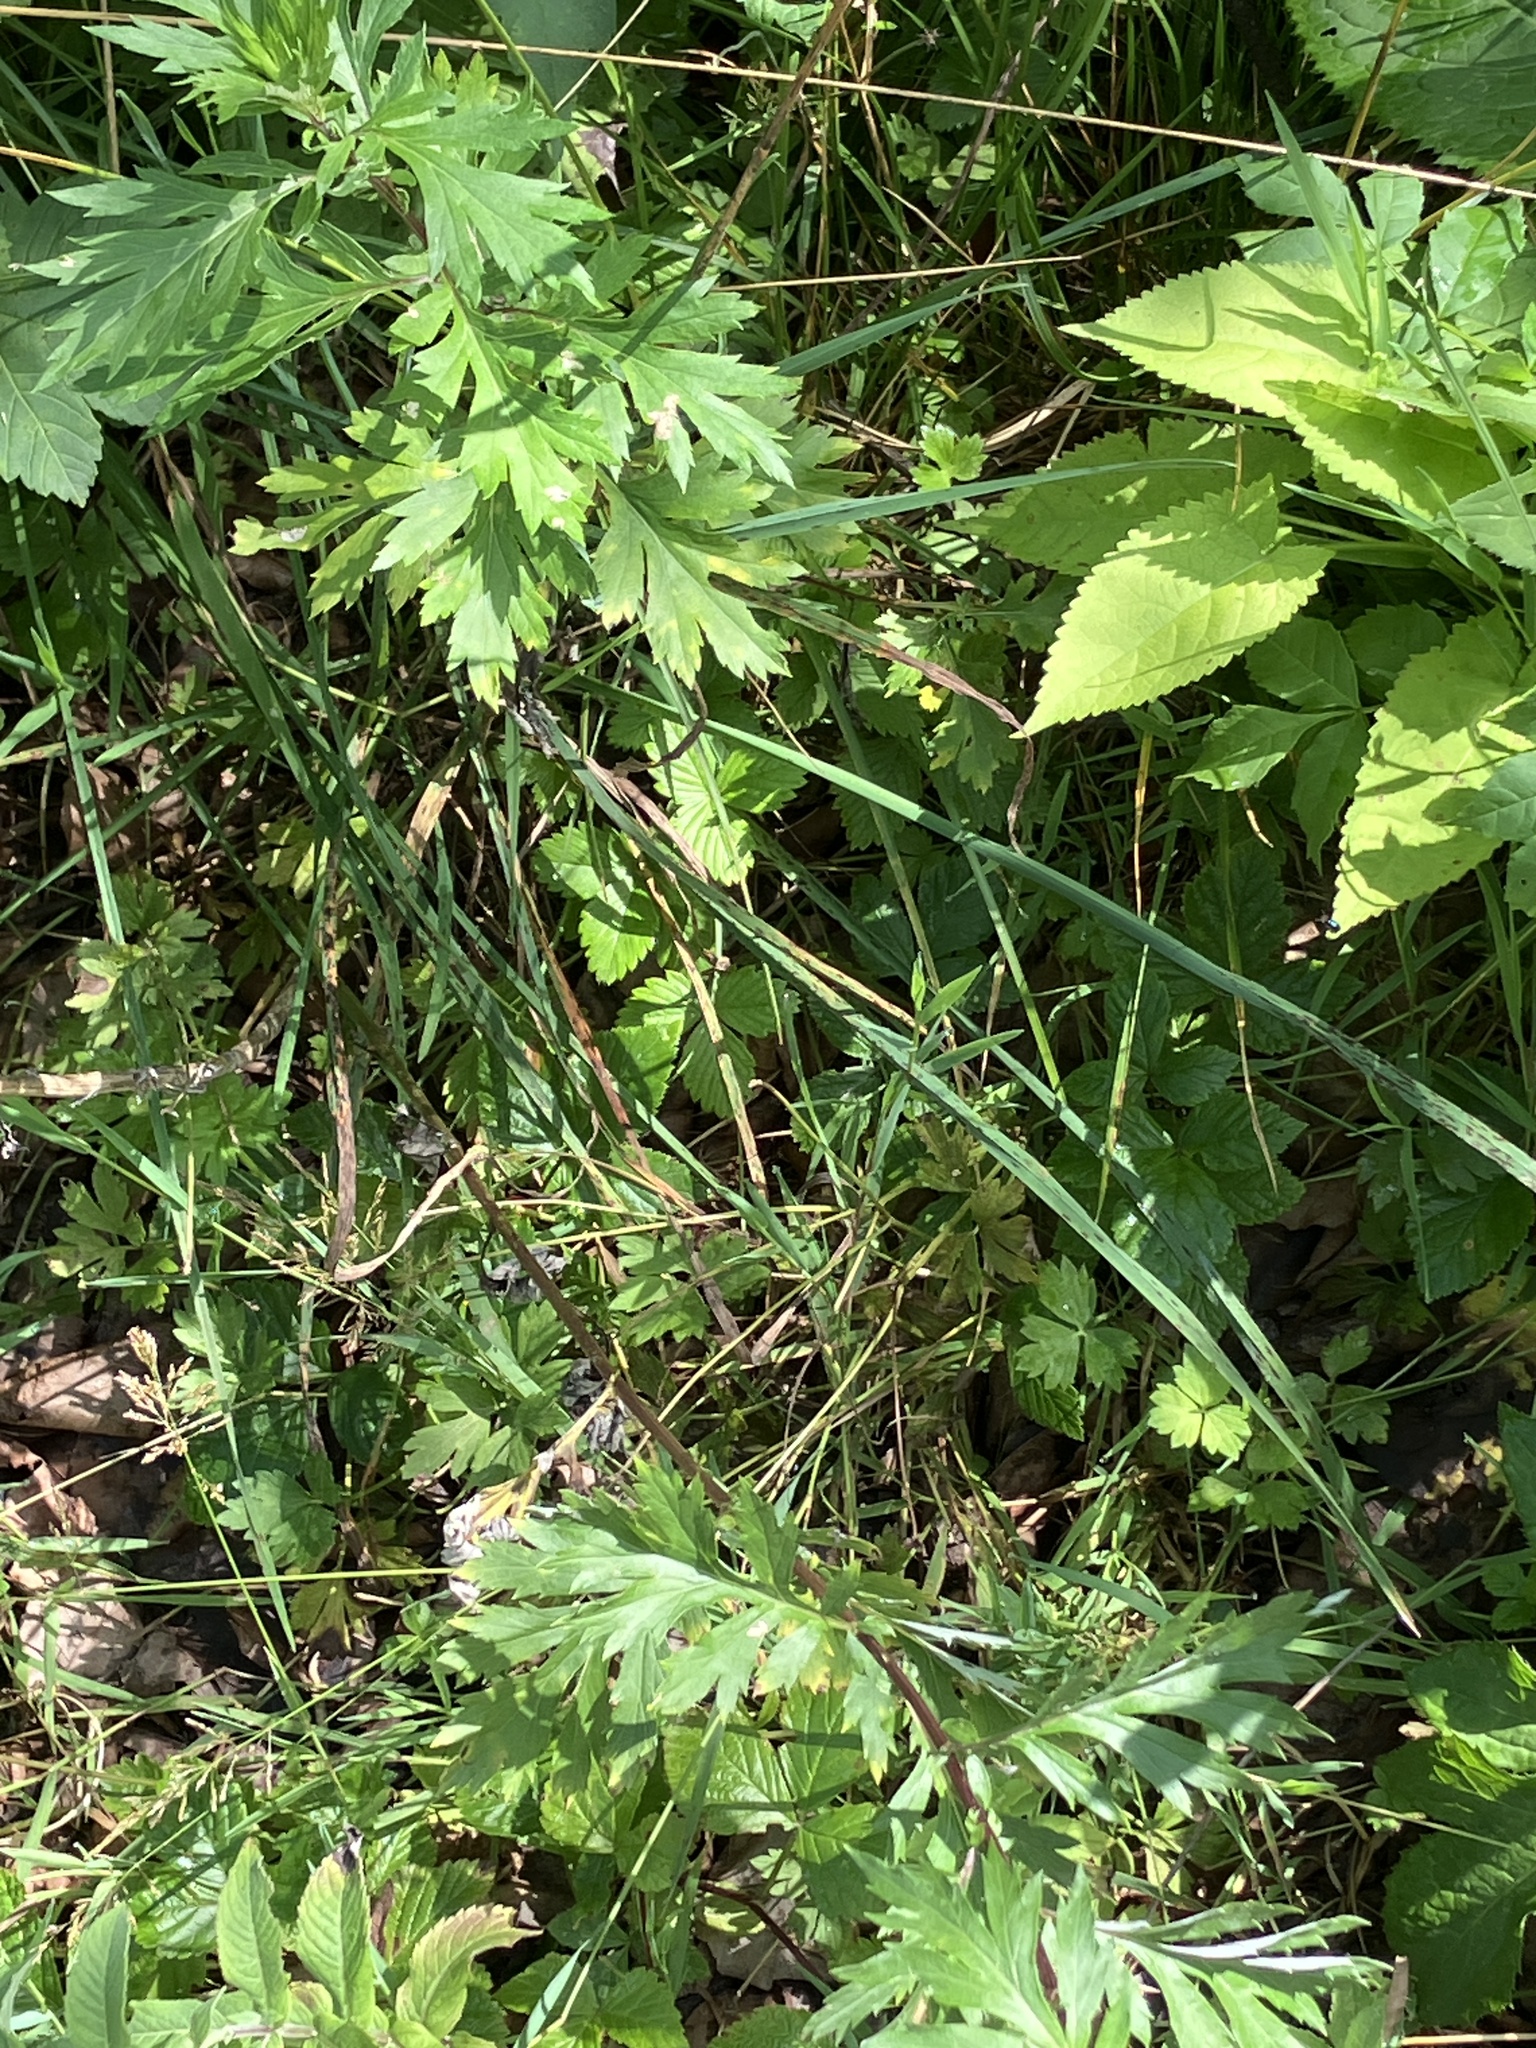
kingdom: Plantae
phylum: Tracheophyta
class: Magnoliopsida
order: Asterales
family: Asteraceae
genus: Artemisia
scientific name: Artemisia vulgaris
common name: Mugwort
